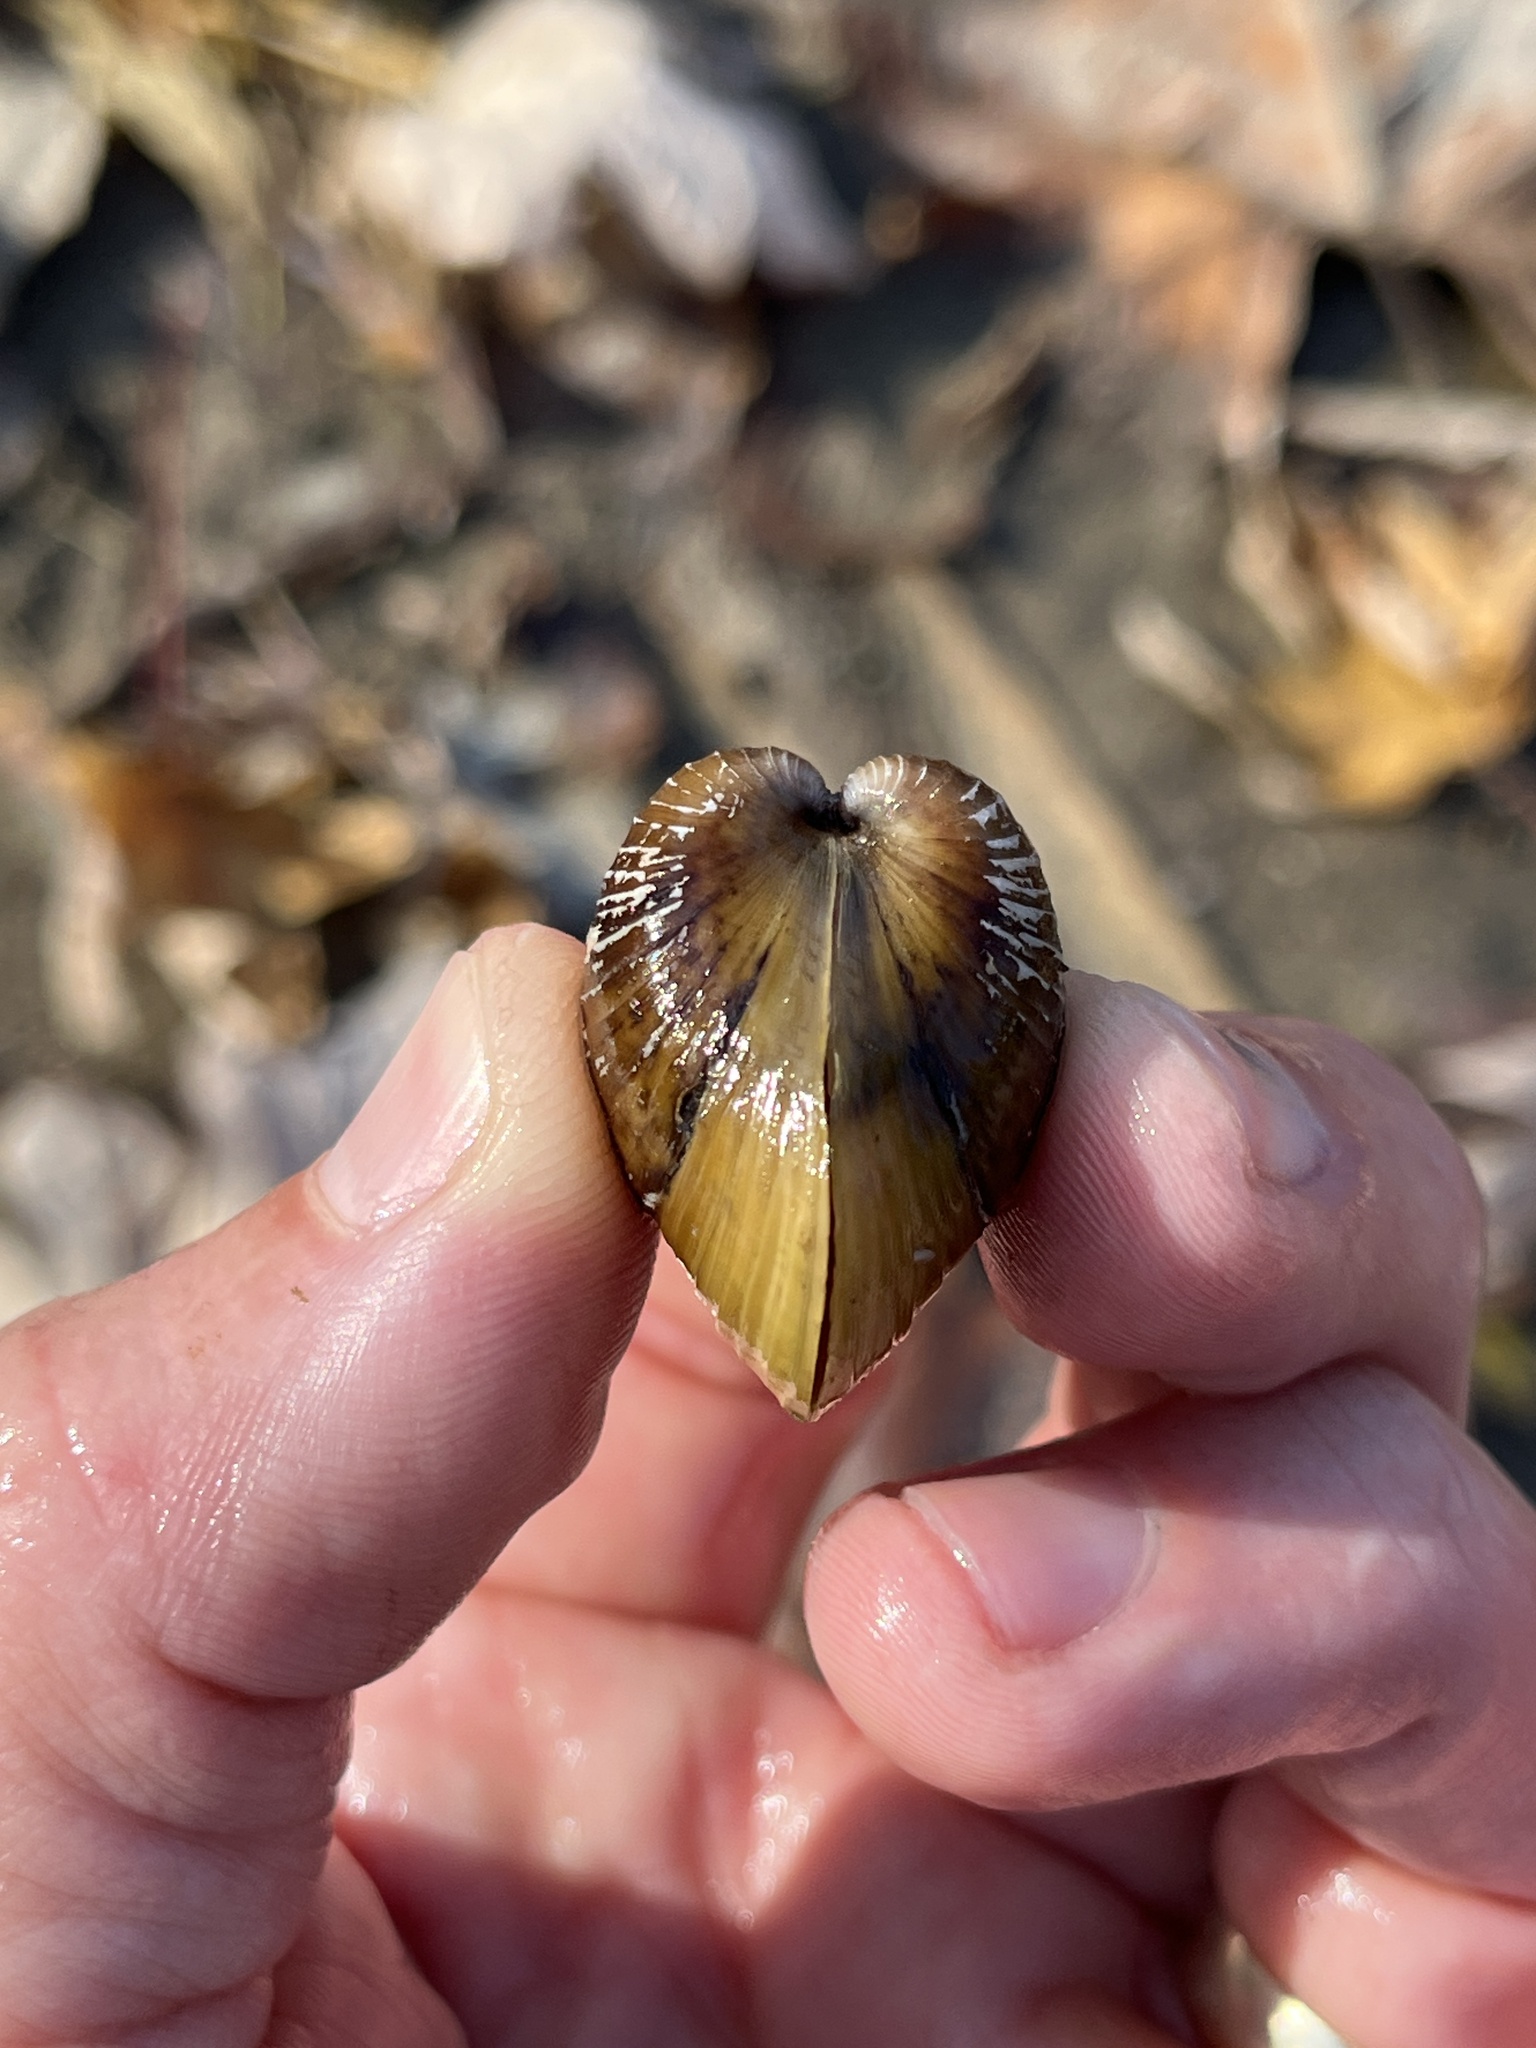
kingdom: Animalia
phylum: Mollusca
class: Bivalvia
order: Venerida
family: Cyrenidae
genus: Corbicula
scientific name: Corbicula fluminea
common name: Asian clam
